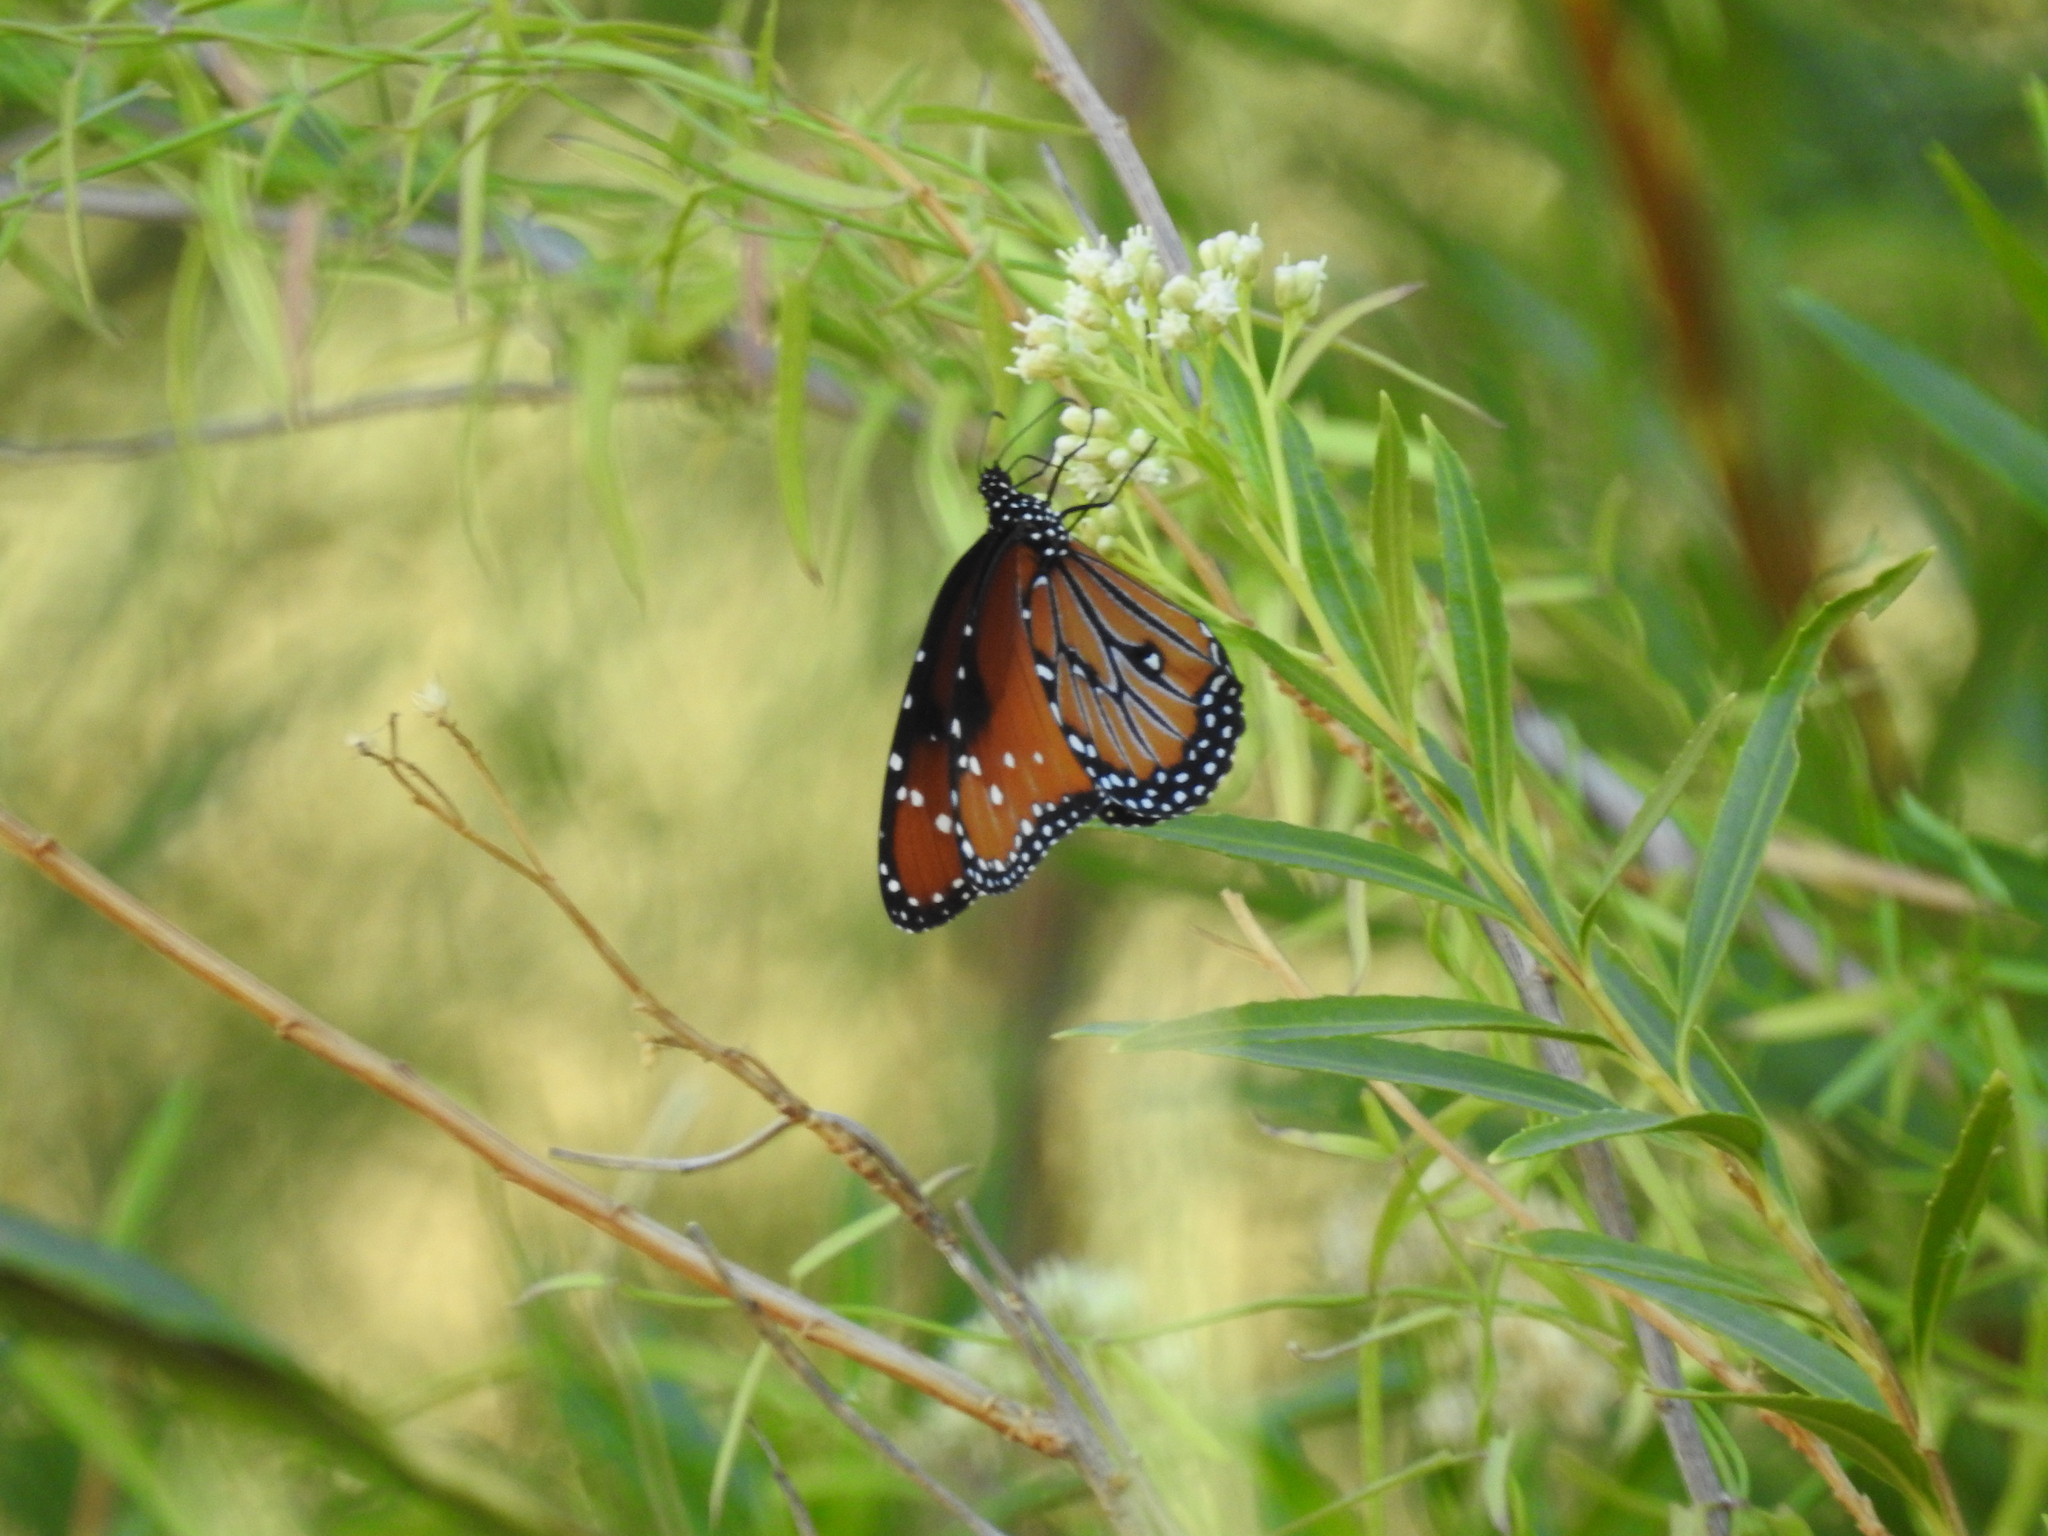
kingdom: Animalia
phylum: Arthropoda
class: Insecta
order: Lepidoptera
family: Nymphalidae
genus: Danaus
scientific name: Danaus gilippus
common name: Queen
